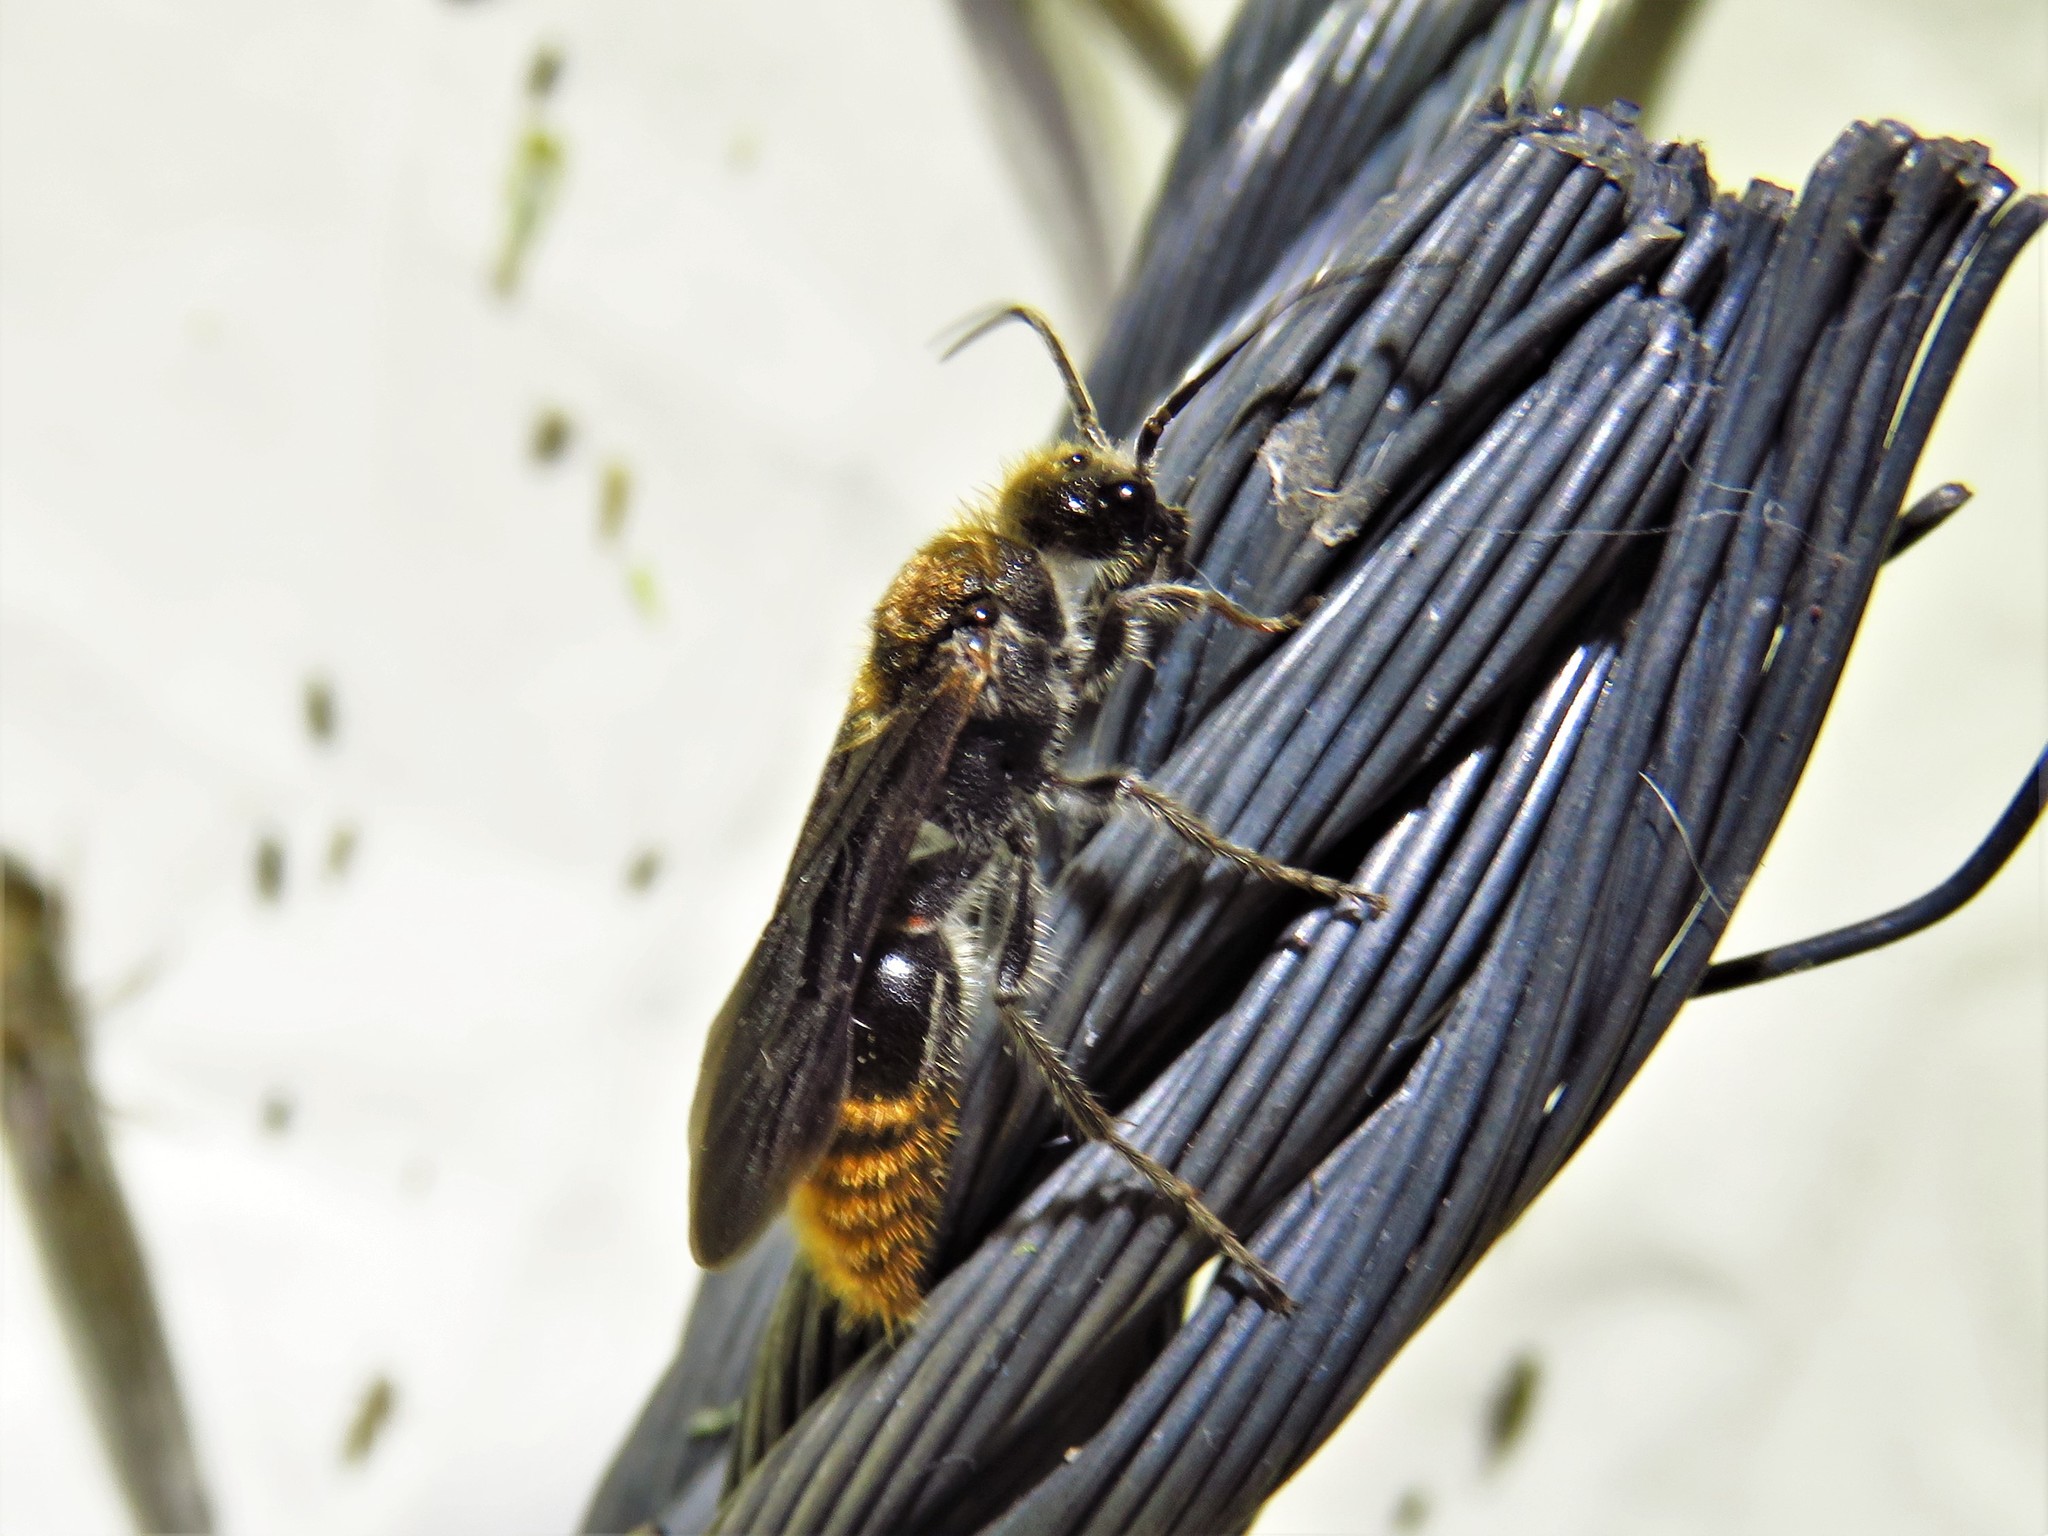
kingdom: Animalia
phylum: Arthropoda
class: Insecta
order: Hymenoptera
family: Mutillidae
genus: Sphaeropthalma
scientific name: Sphaeropthalma marpesia
